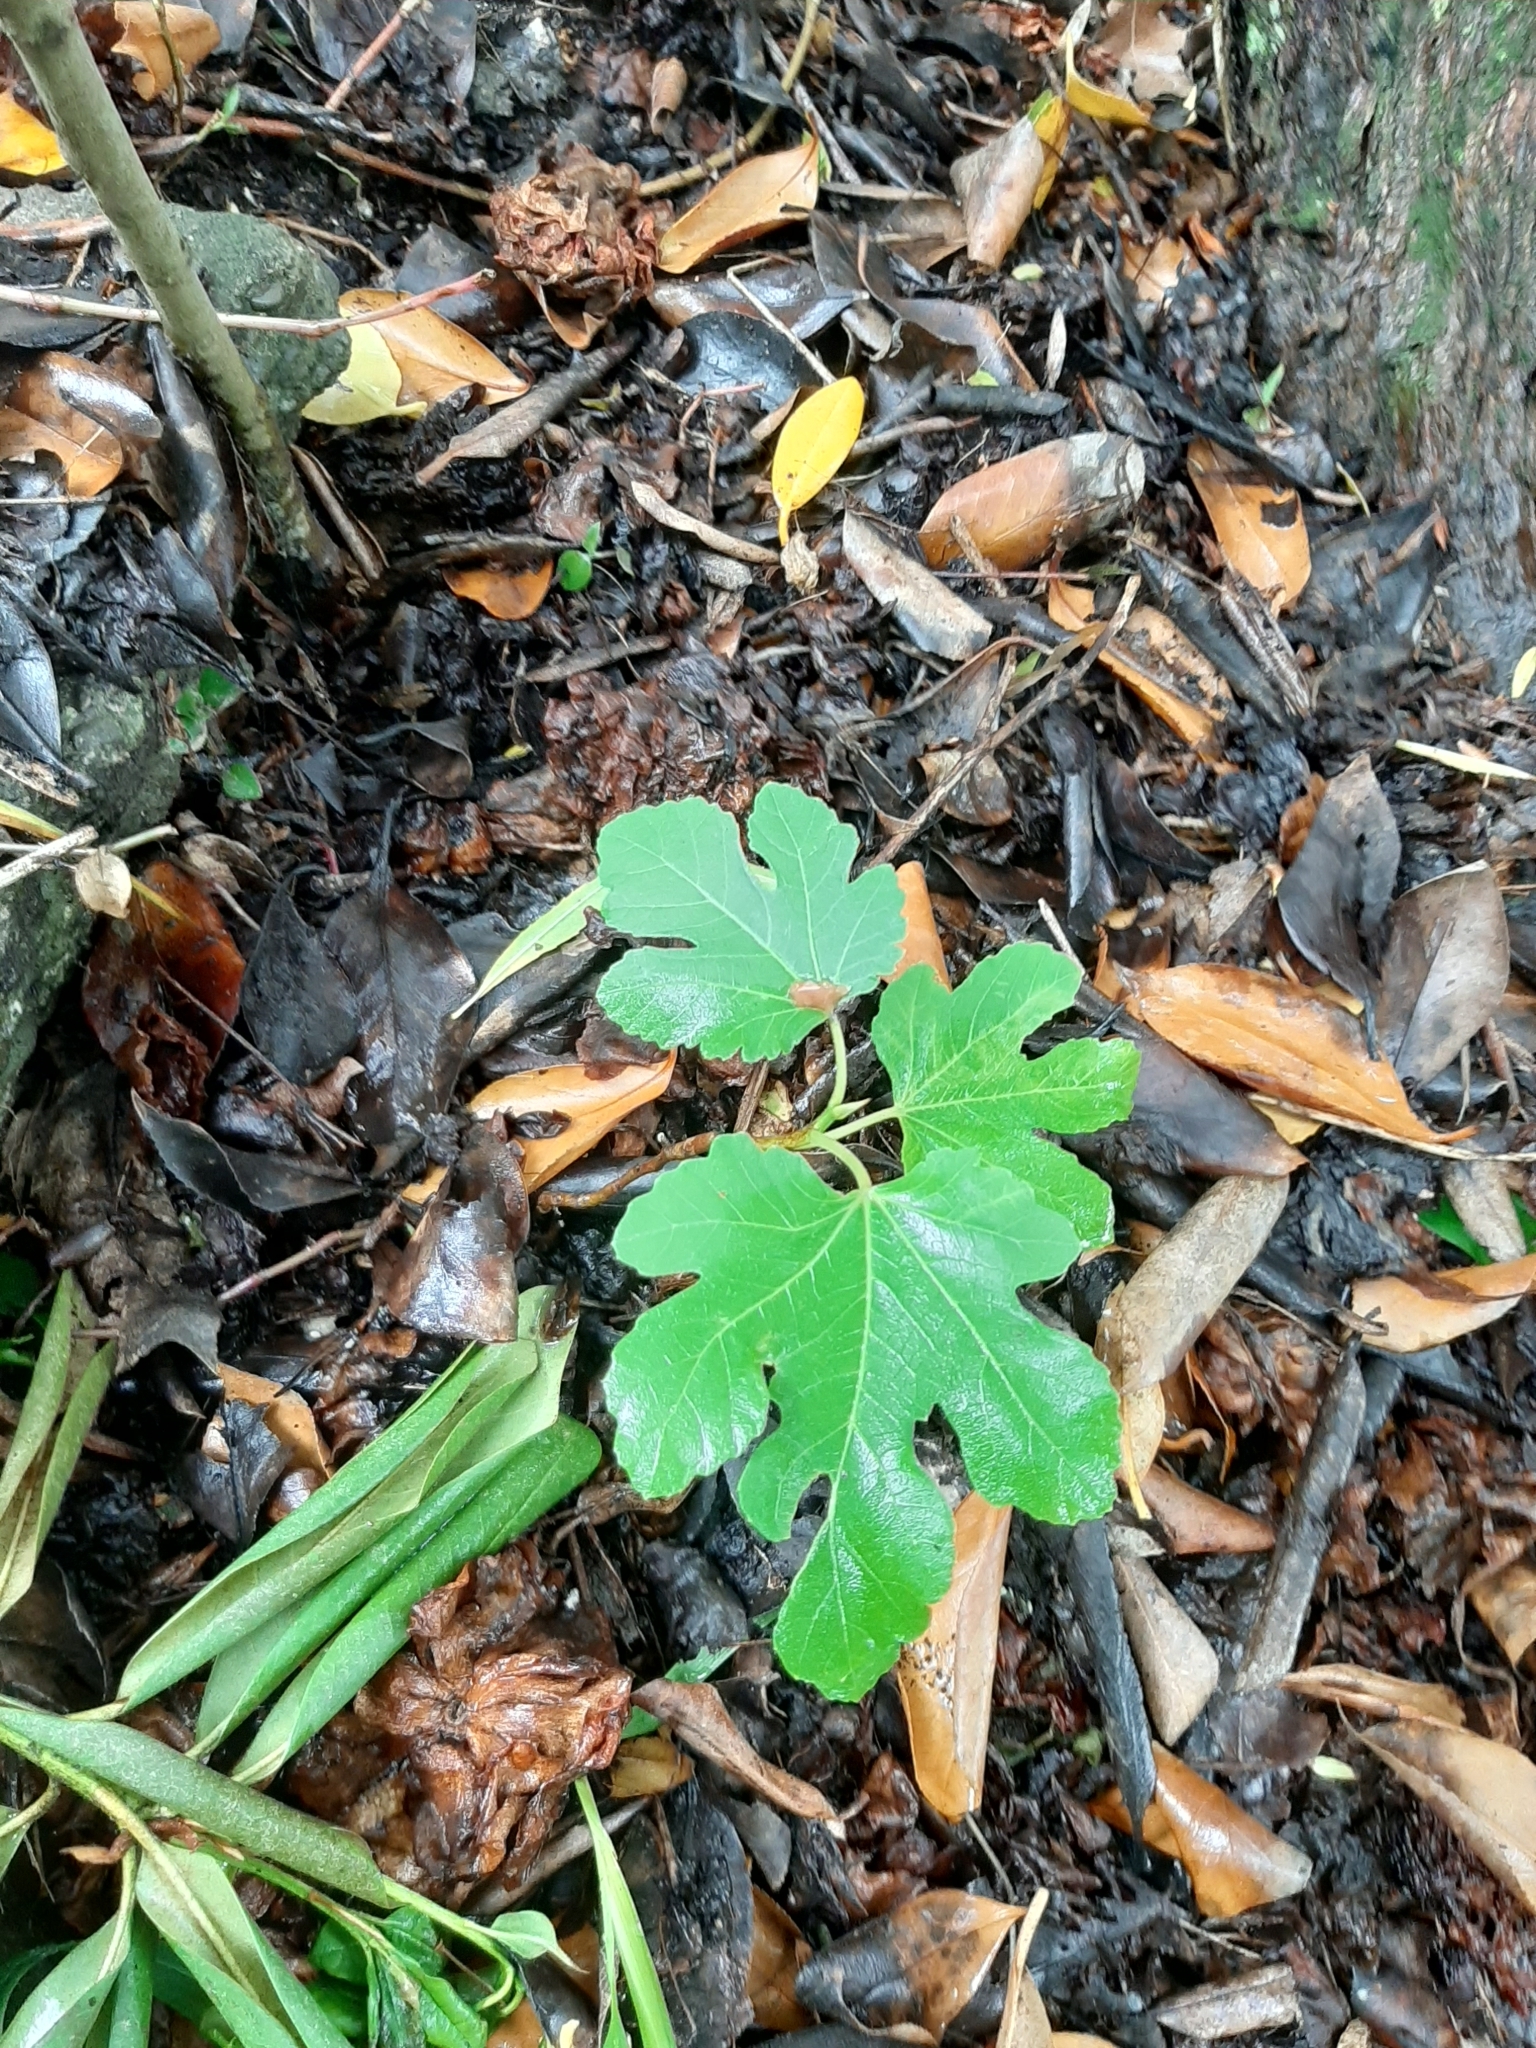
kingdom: Plantae
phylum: Tracheophyta
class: Magnoliopsida
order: Rosales
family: Moraceae
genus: Ficus
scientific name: Ficus carica
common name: Fig
